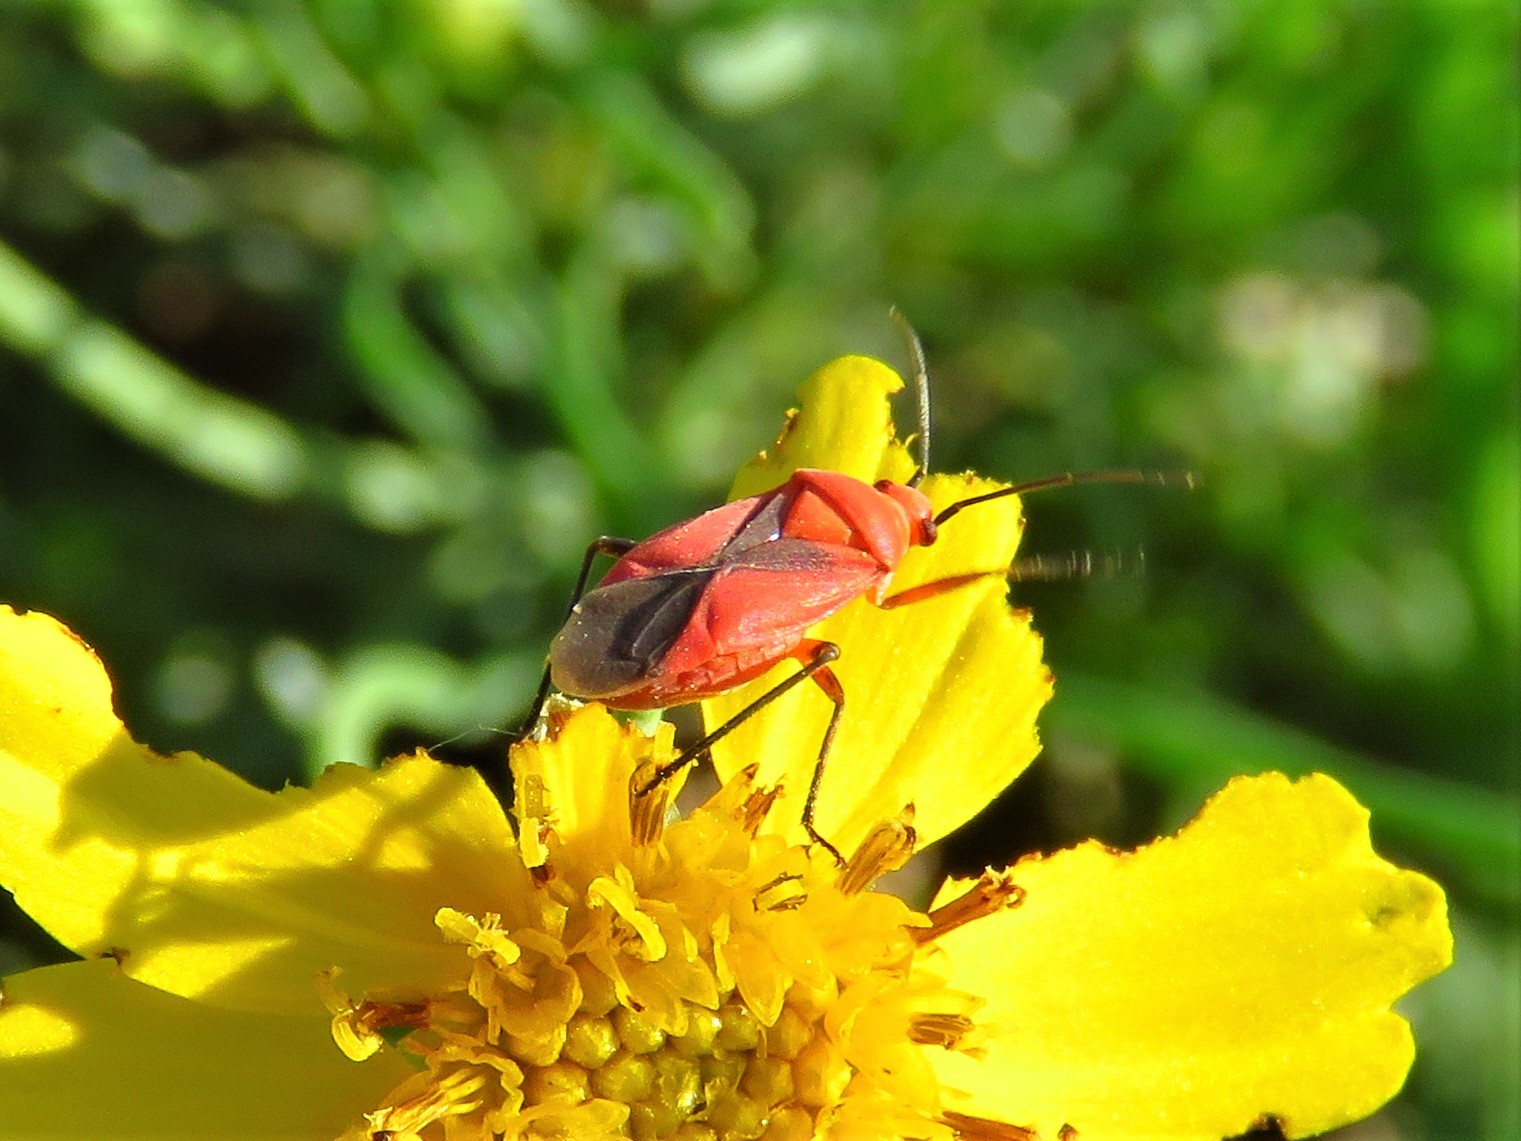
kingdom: Animalia
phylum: Arthropoda
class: Insecta
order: Hemiptera
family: Miridae
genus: Oncerometopus
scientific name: Oncerometopus nigriclavus
